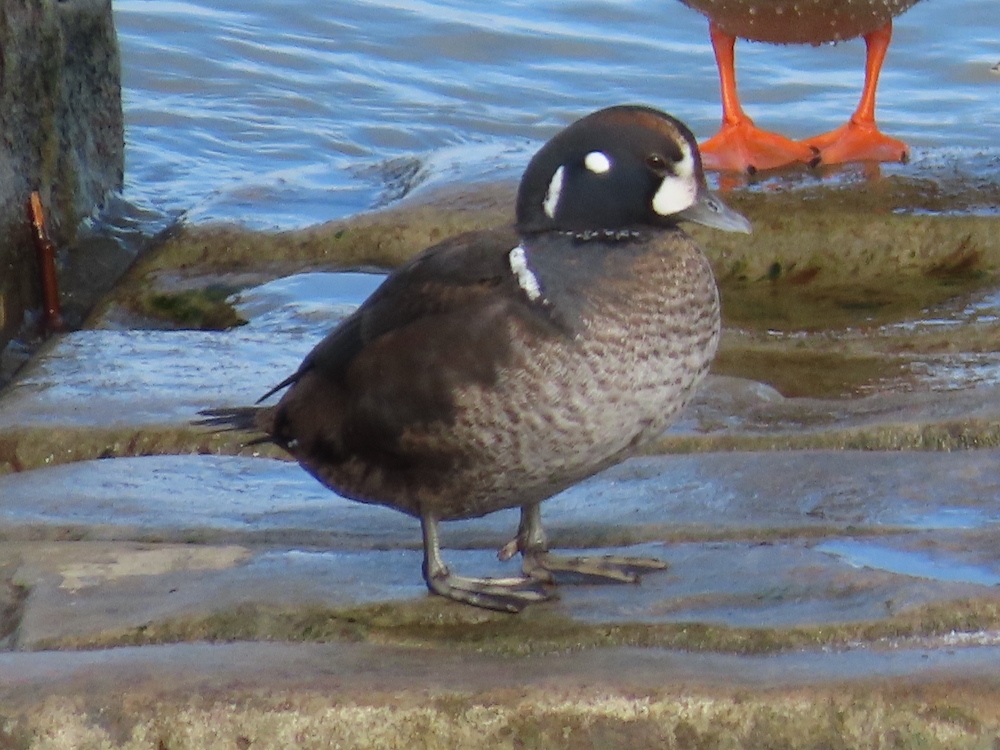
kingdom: Animalia
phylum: Chordata
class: Aves
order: Anseriformes
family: Anatidae
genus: Histrionicus
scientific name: Histrionicus histrionicus
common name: Harlequin duck
